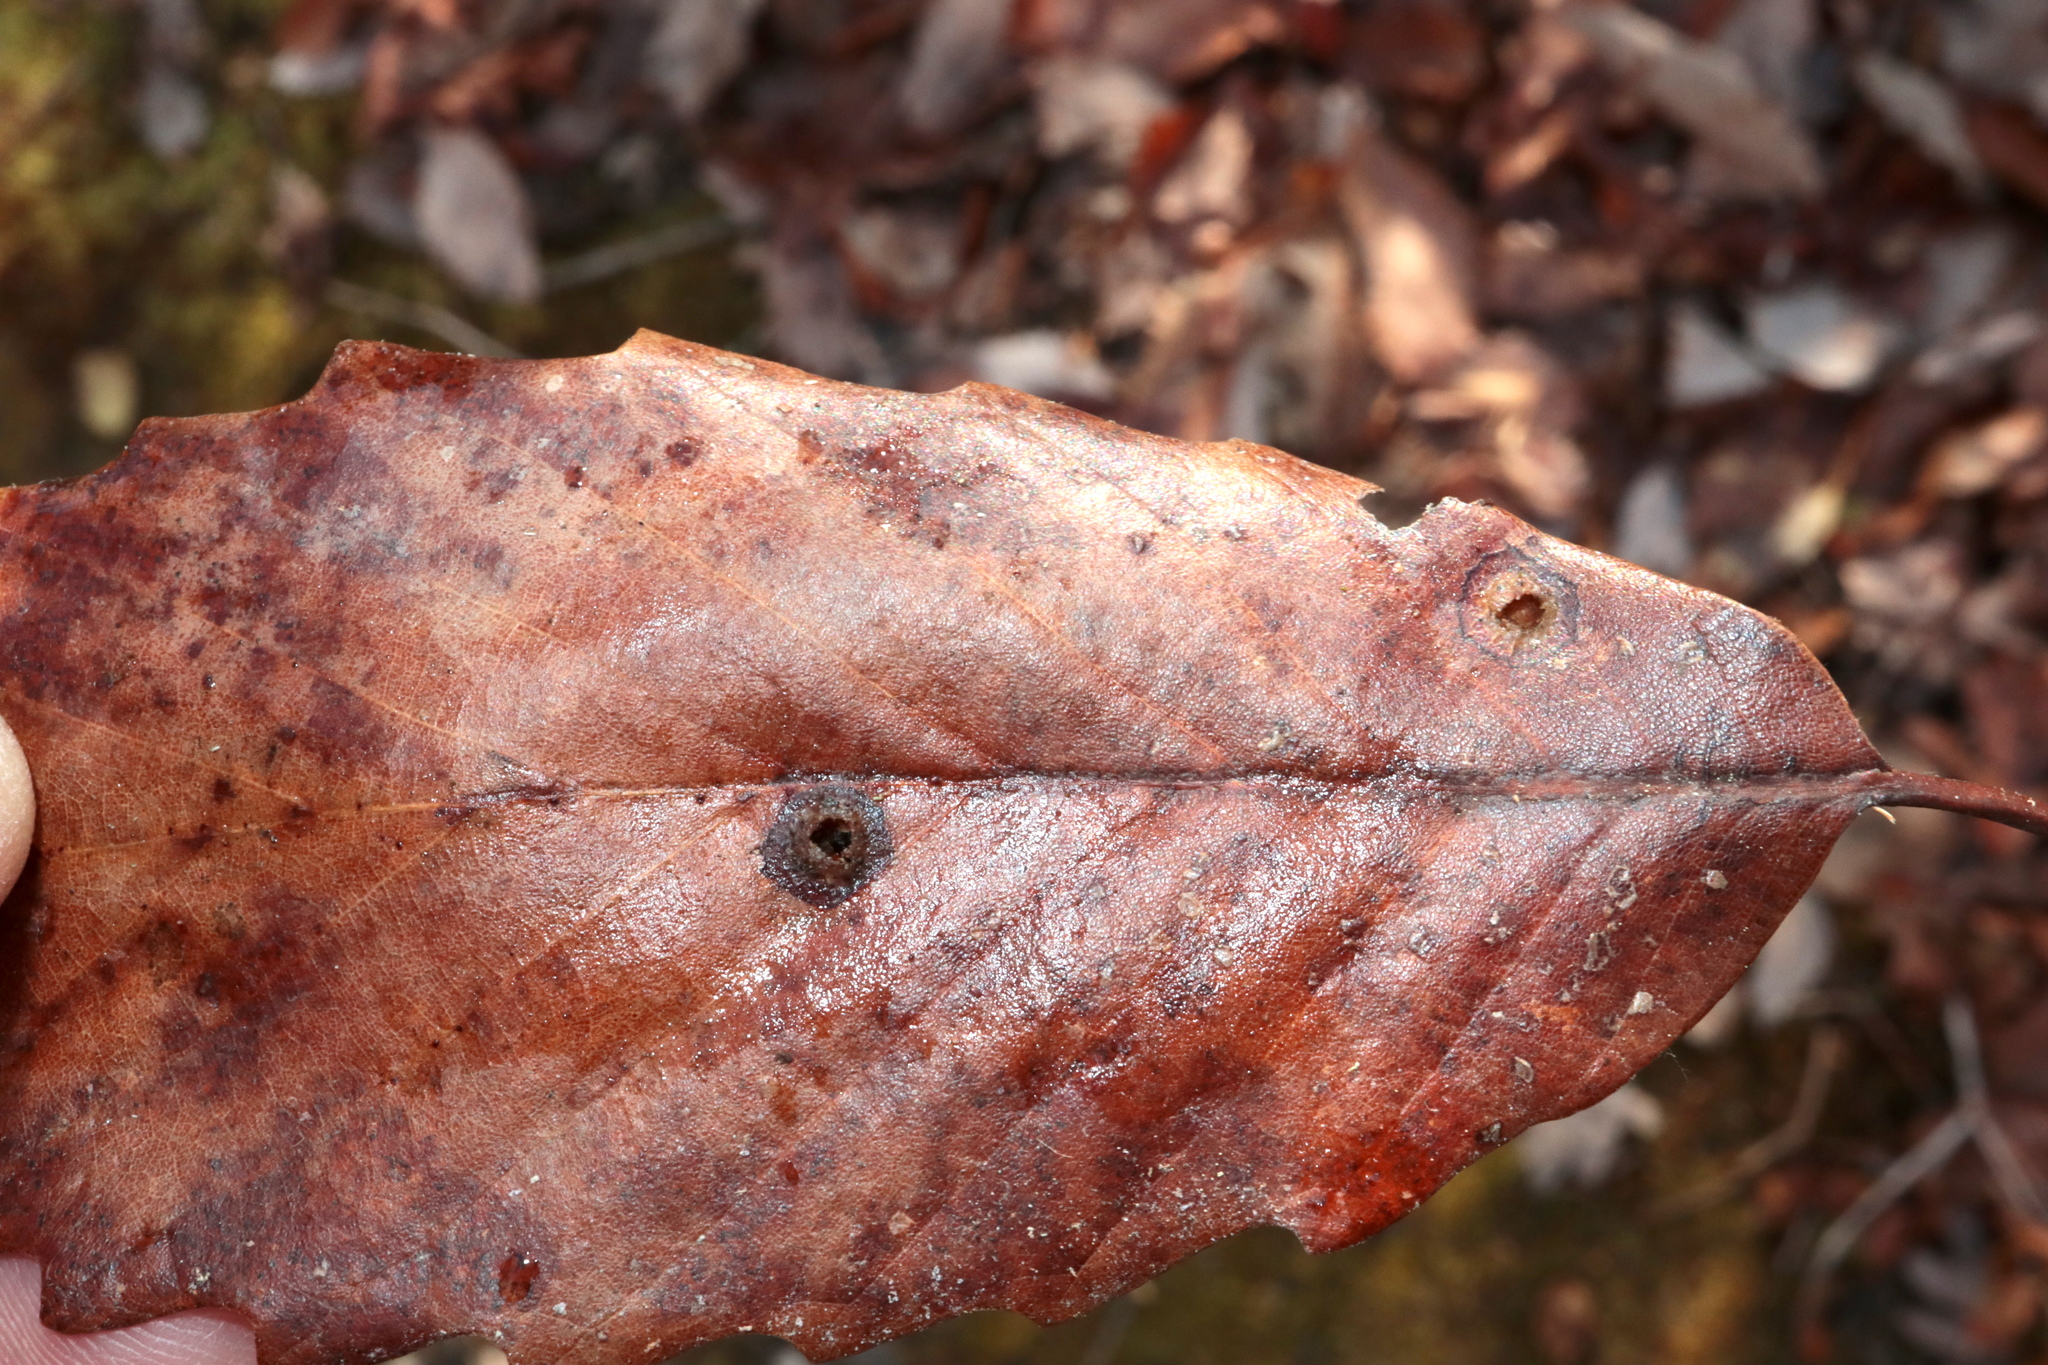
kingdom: Animalia
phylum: Arthropoda
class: Insecta
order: Hymenoptera
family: Cynipidae
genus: Callirhytis
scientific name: Callirhytis
